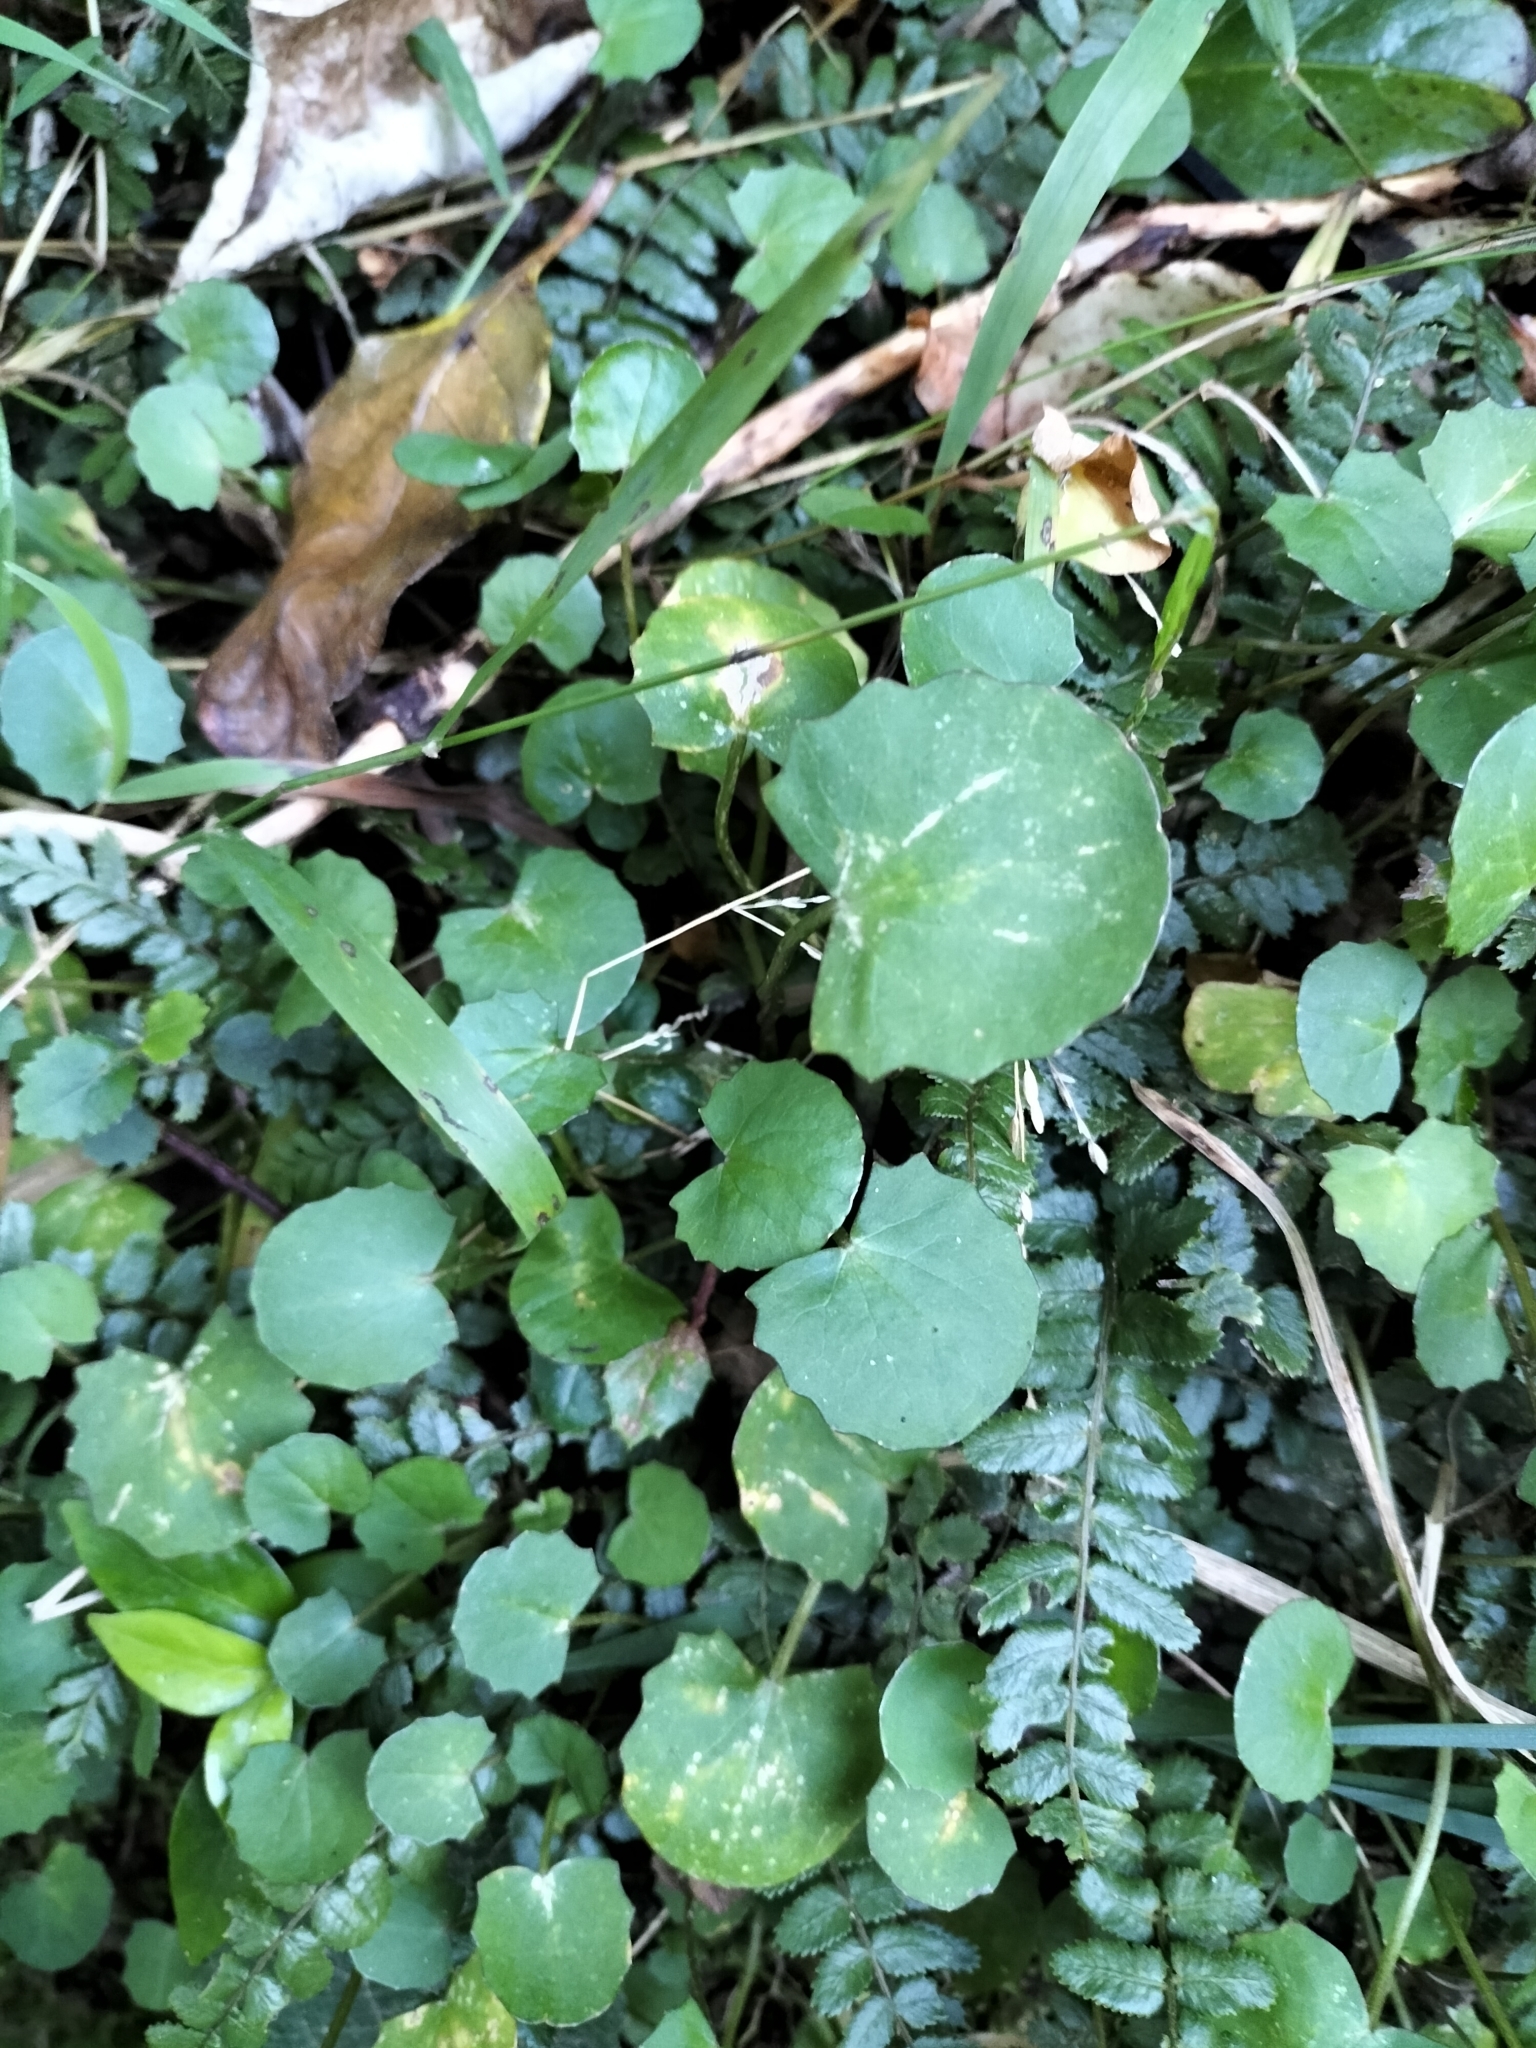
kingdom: Plantae
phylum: Tracheophyta
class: Magnoliopsida
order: Apiales
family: Apiaceae
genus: Centella
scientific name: Centella uniflora
